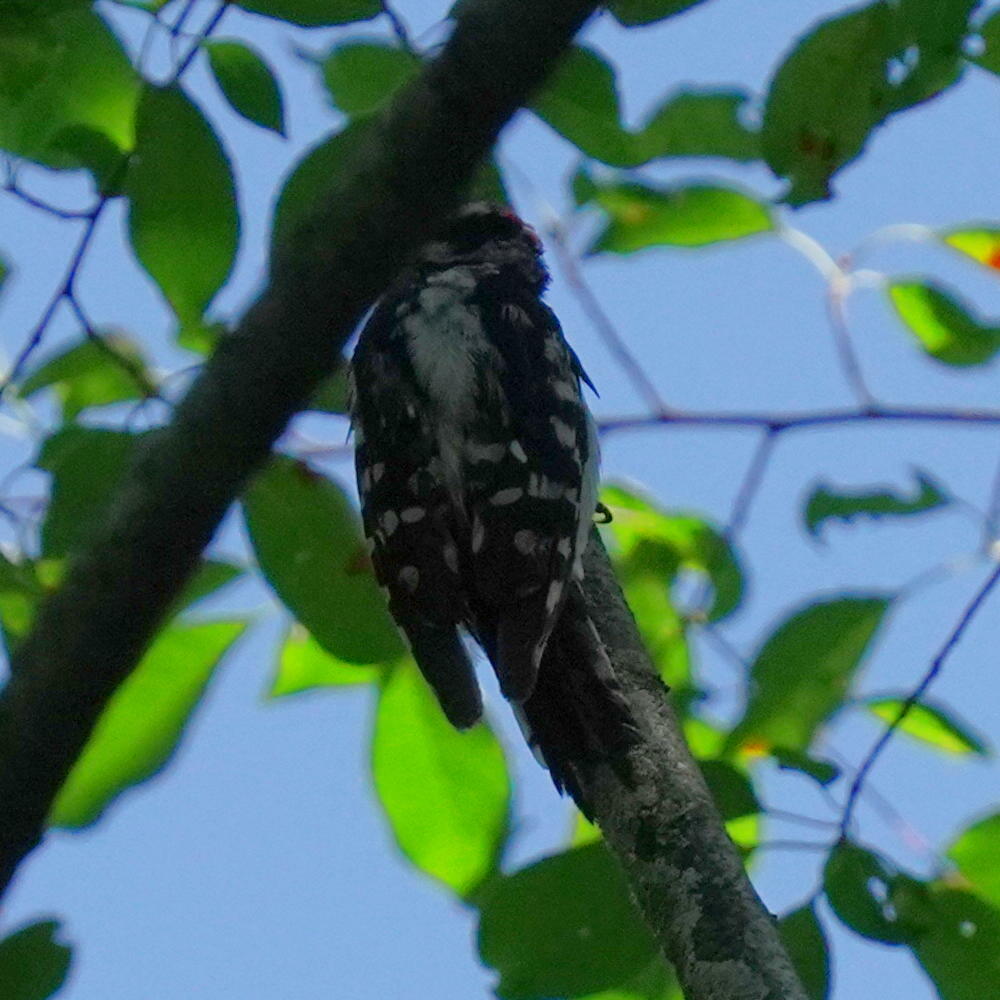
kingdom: Animalia
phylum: Chordata
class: Aves
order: Piciformes
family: Picidae
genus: Dryobates
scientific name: Dryobates pubescens
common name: Downy woodpecker
